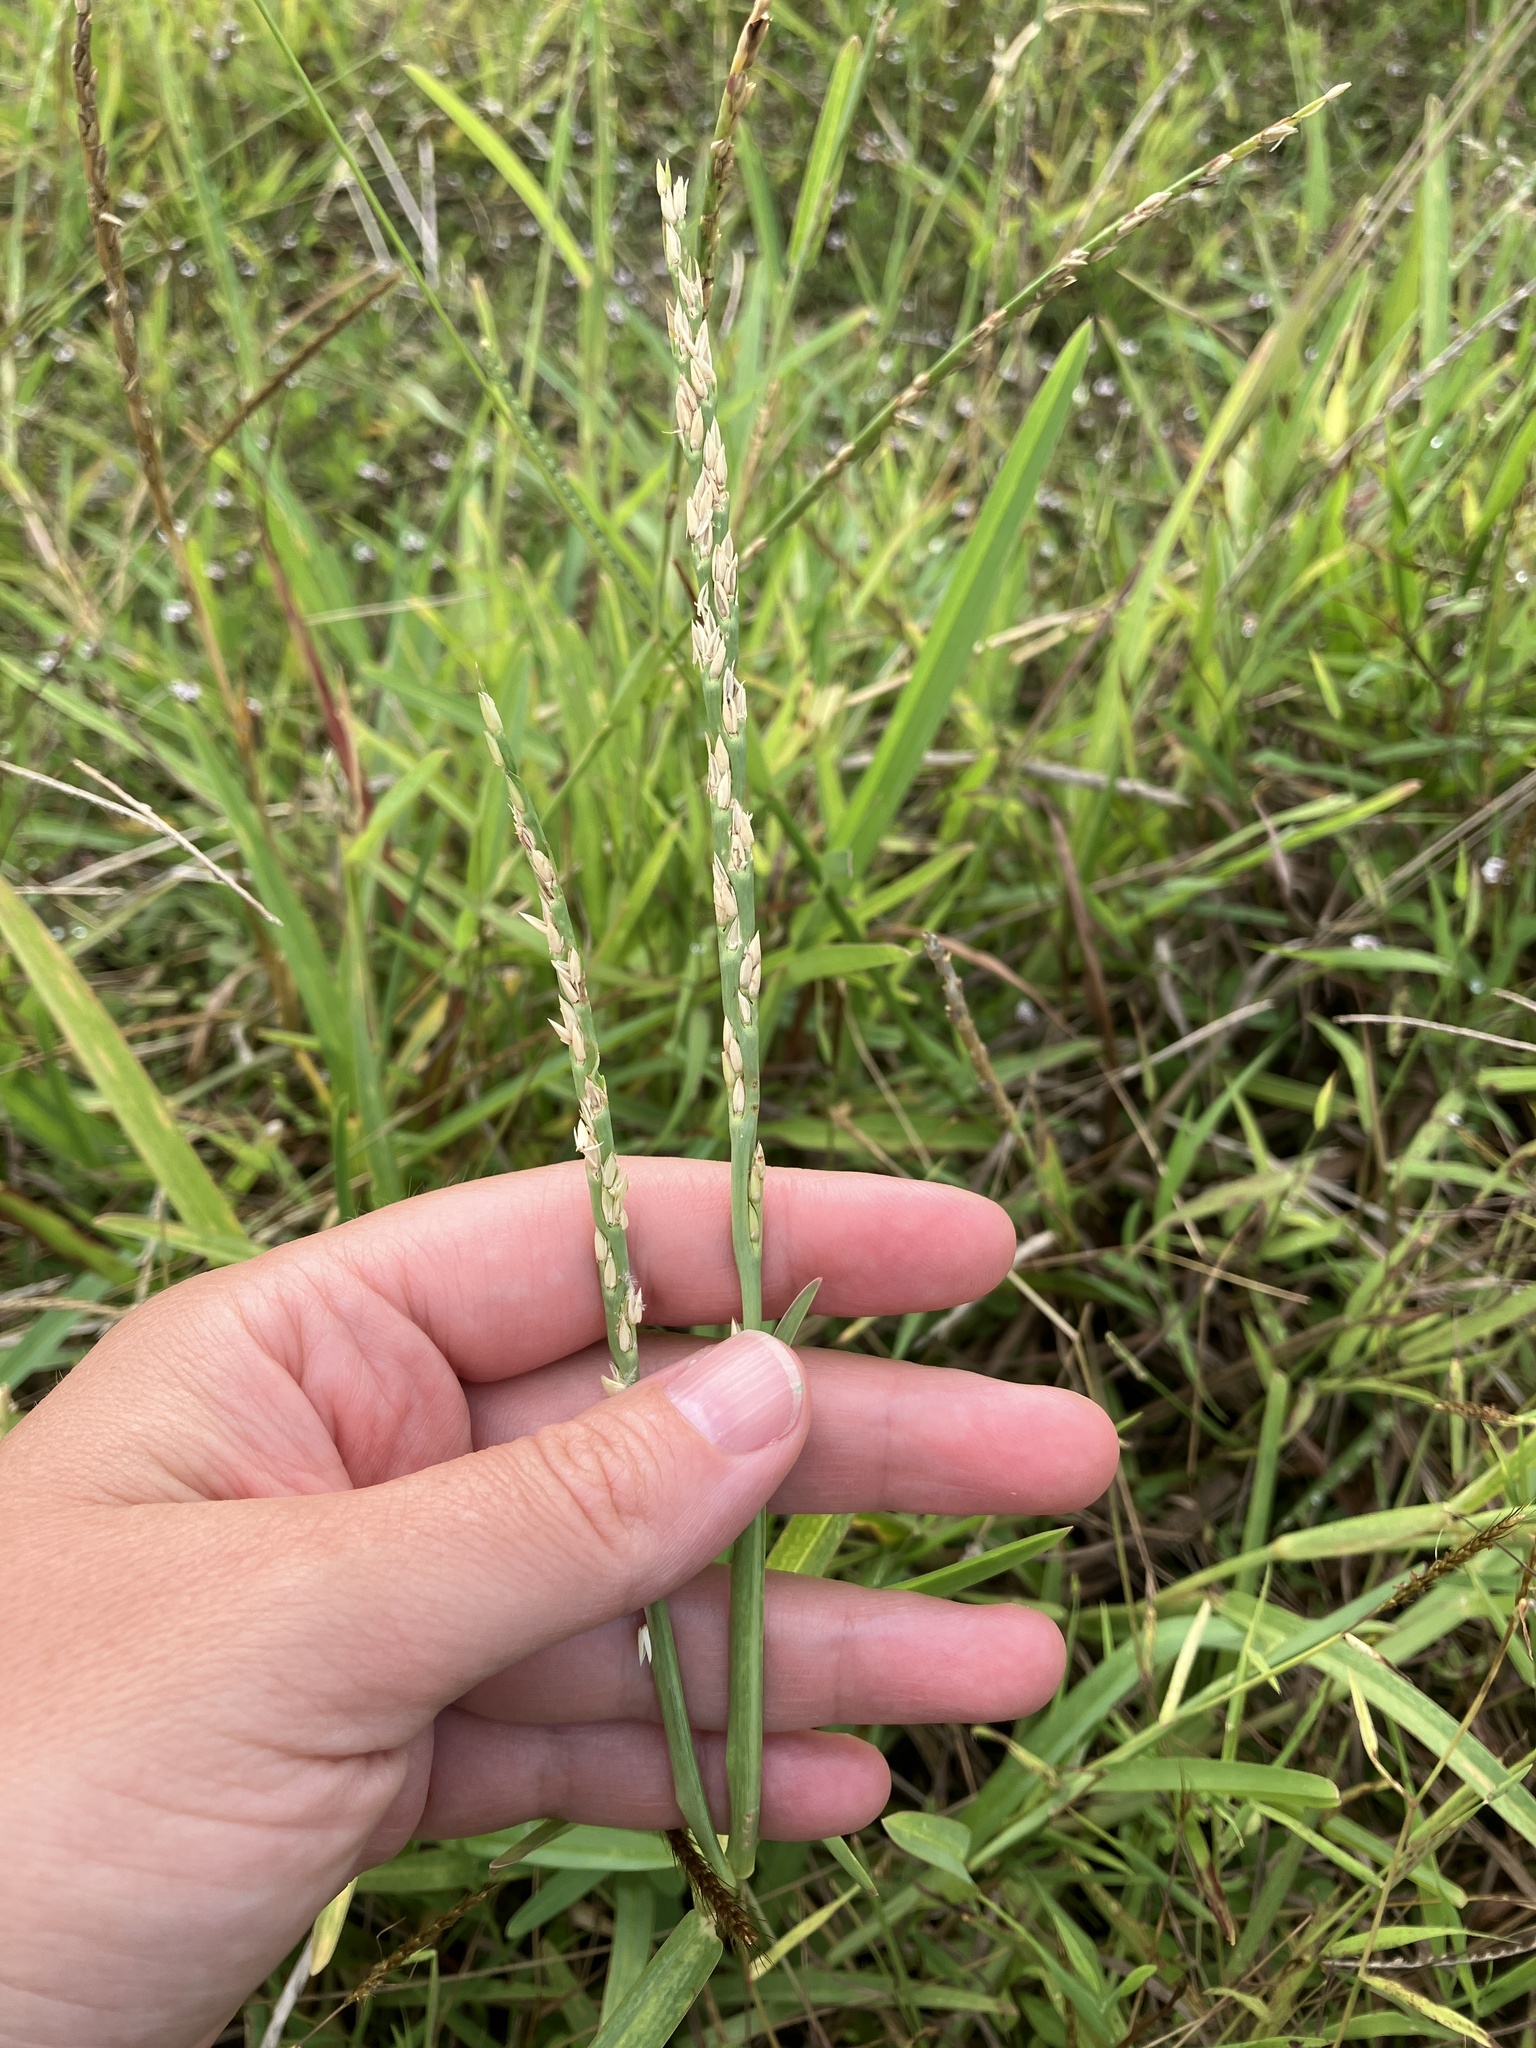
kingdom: Plantae
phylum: Tracheophyta
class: Liliopsida
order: Poales
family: Poaceae
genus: Stenotaphrum
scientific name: Stenotaphrum dimidiatum
